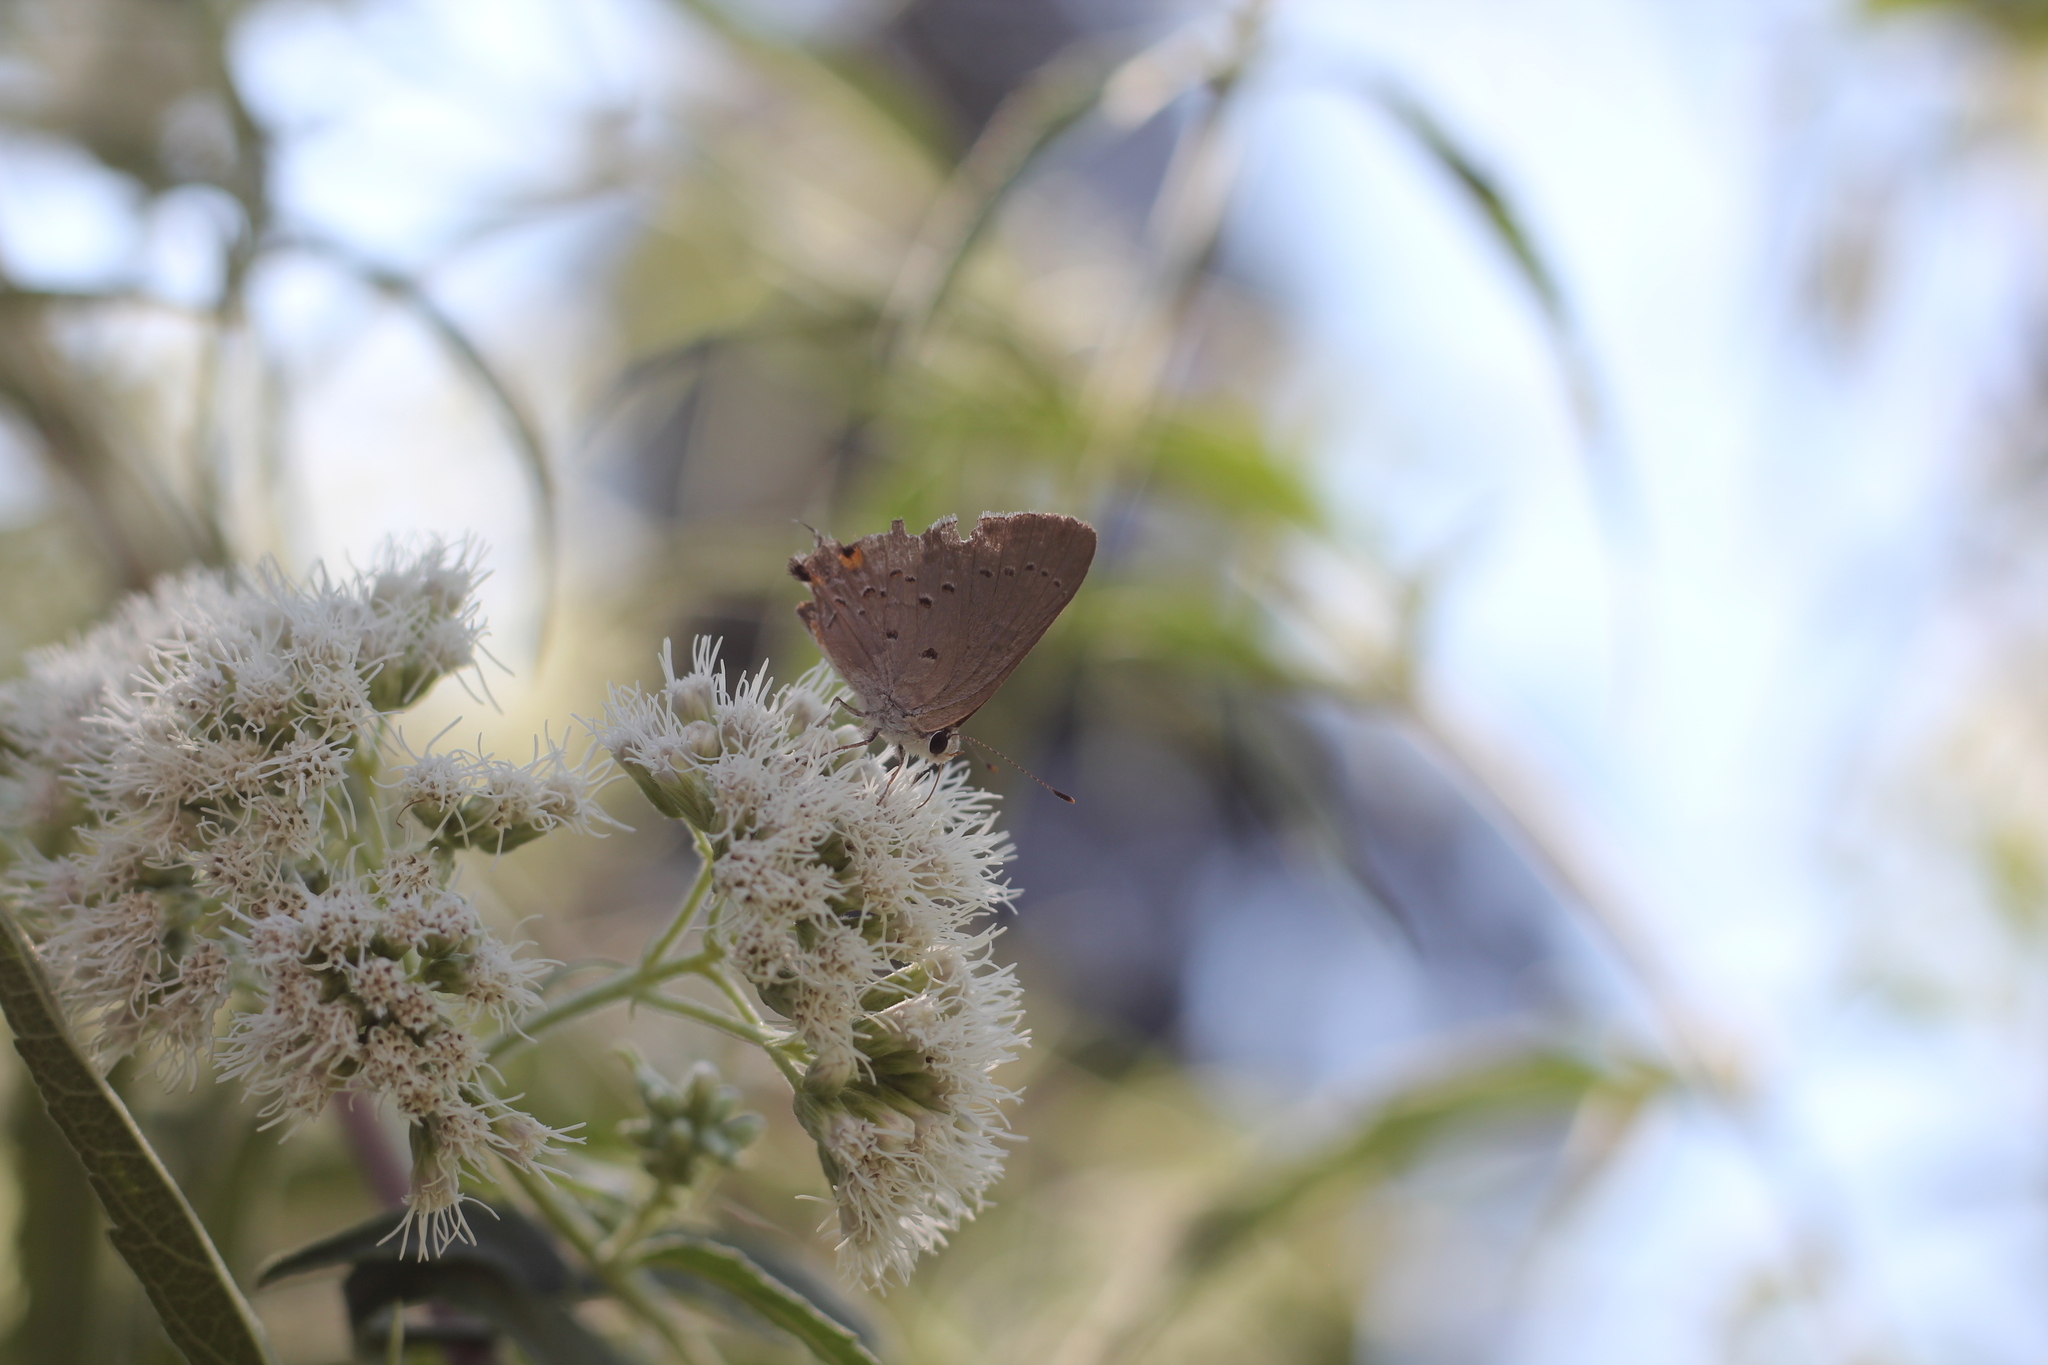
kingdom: Animalia
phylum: Arthropoda
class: Insecta
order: Lepidoptera
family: Lycaenidae
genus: Strymon
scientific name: Strymon eurytulus
